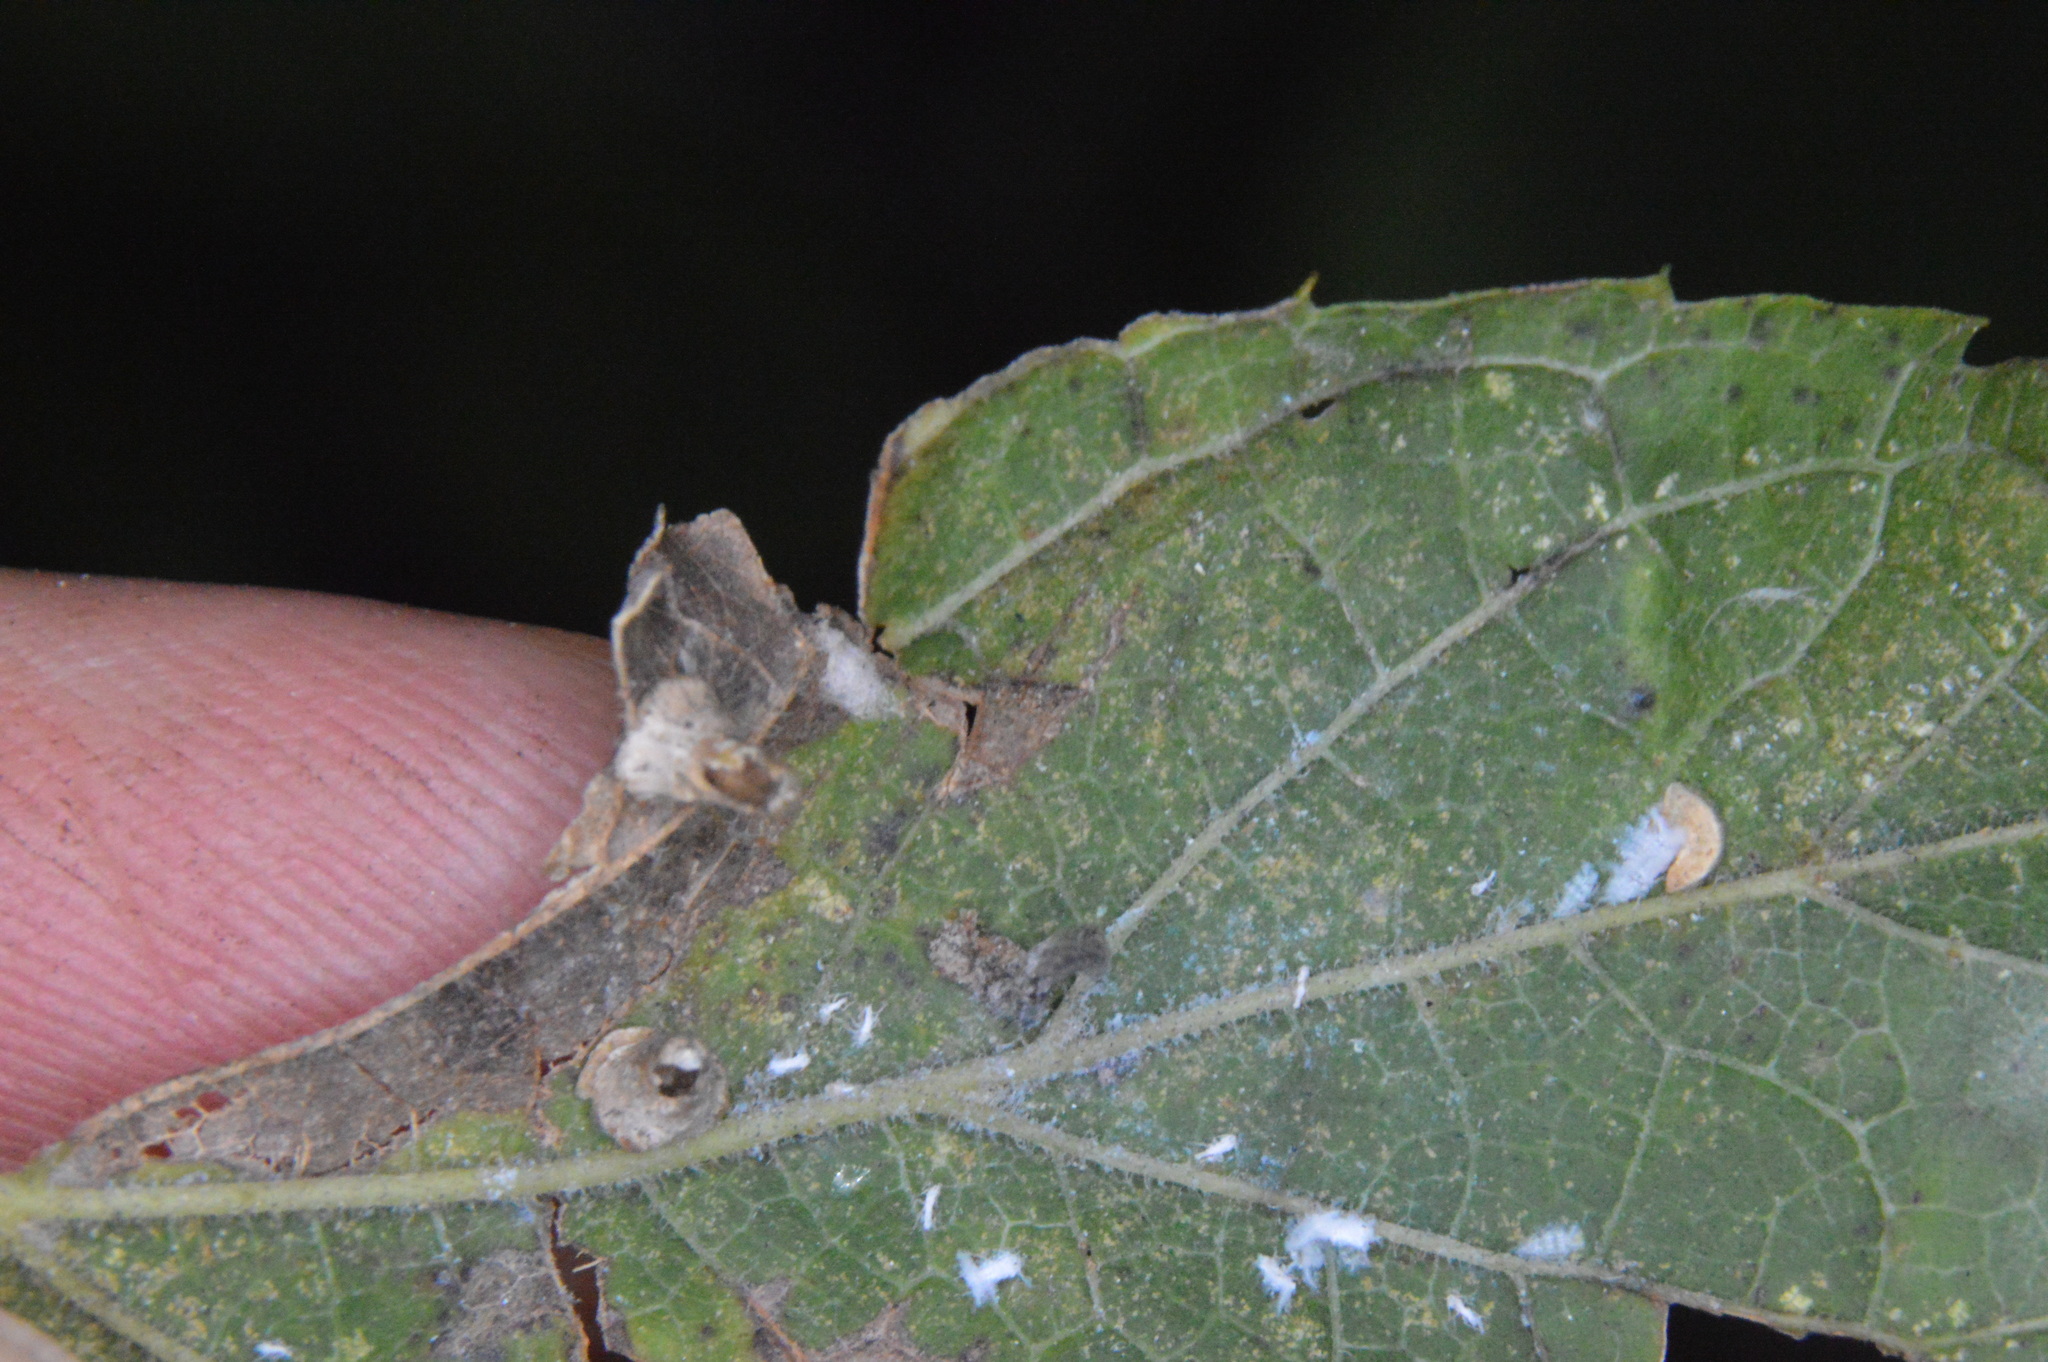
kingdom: Animalia
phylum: Arthropoda
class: Insecta
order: Diptera
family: Cecidomyiidae
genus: Celticecis
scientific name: Celticecis aciculata
